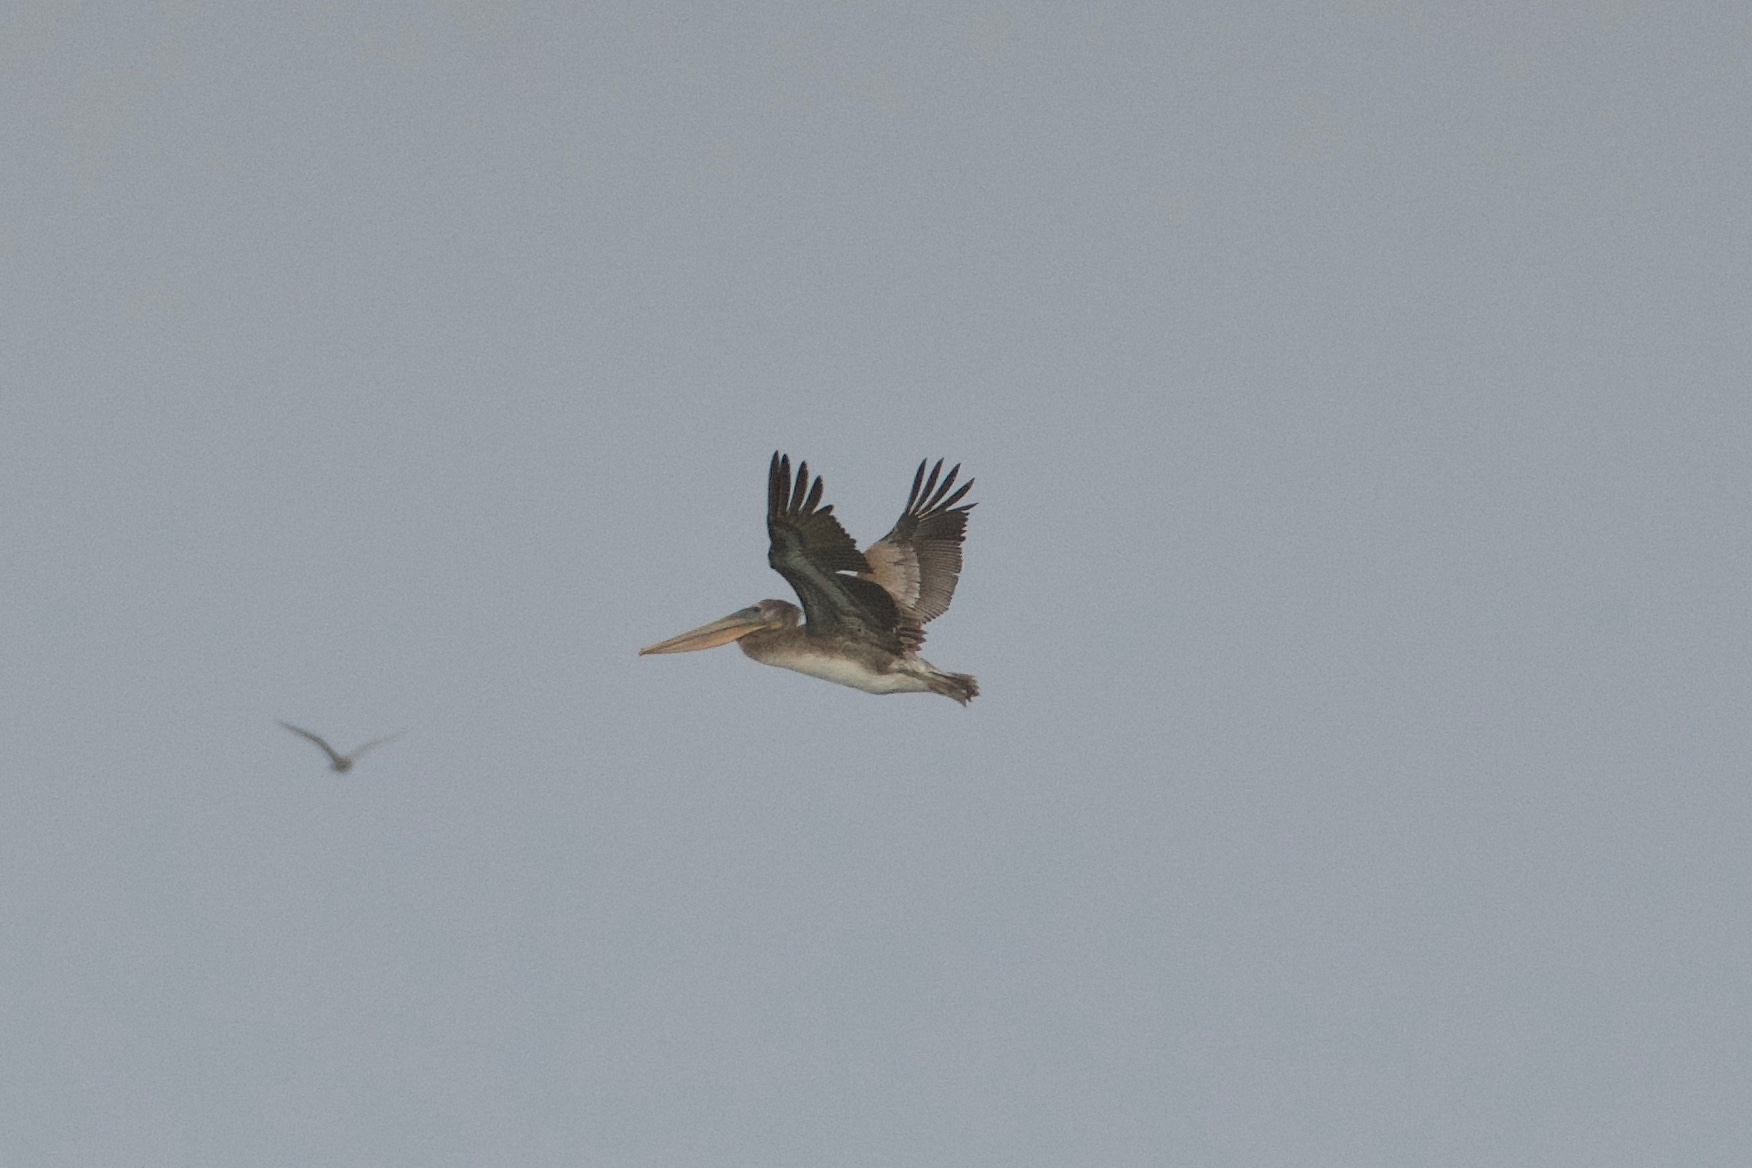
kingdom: Animalia
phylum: Chordata
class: Aves
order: Pelecaniformes
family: Pelecanidae
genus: Pelecanus
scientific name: Pelecanus occidentalis
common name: Brown pelican
